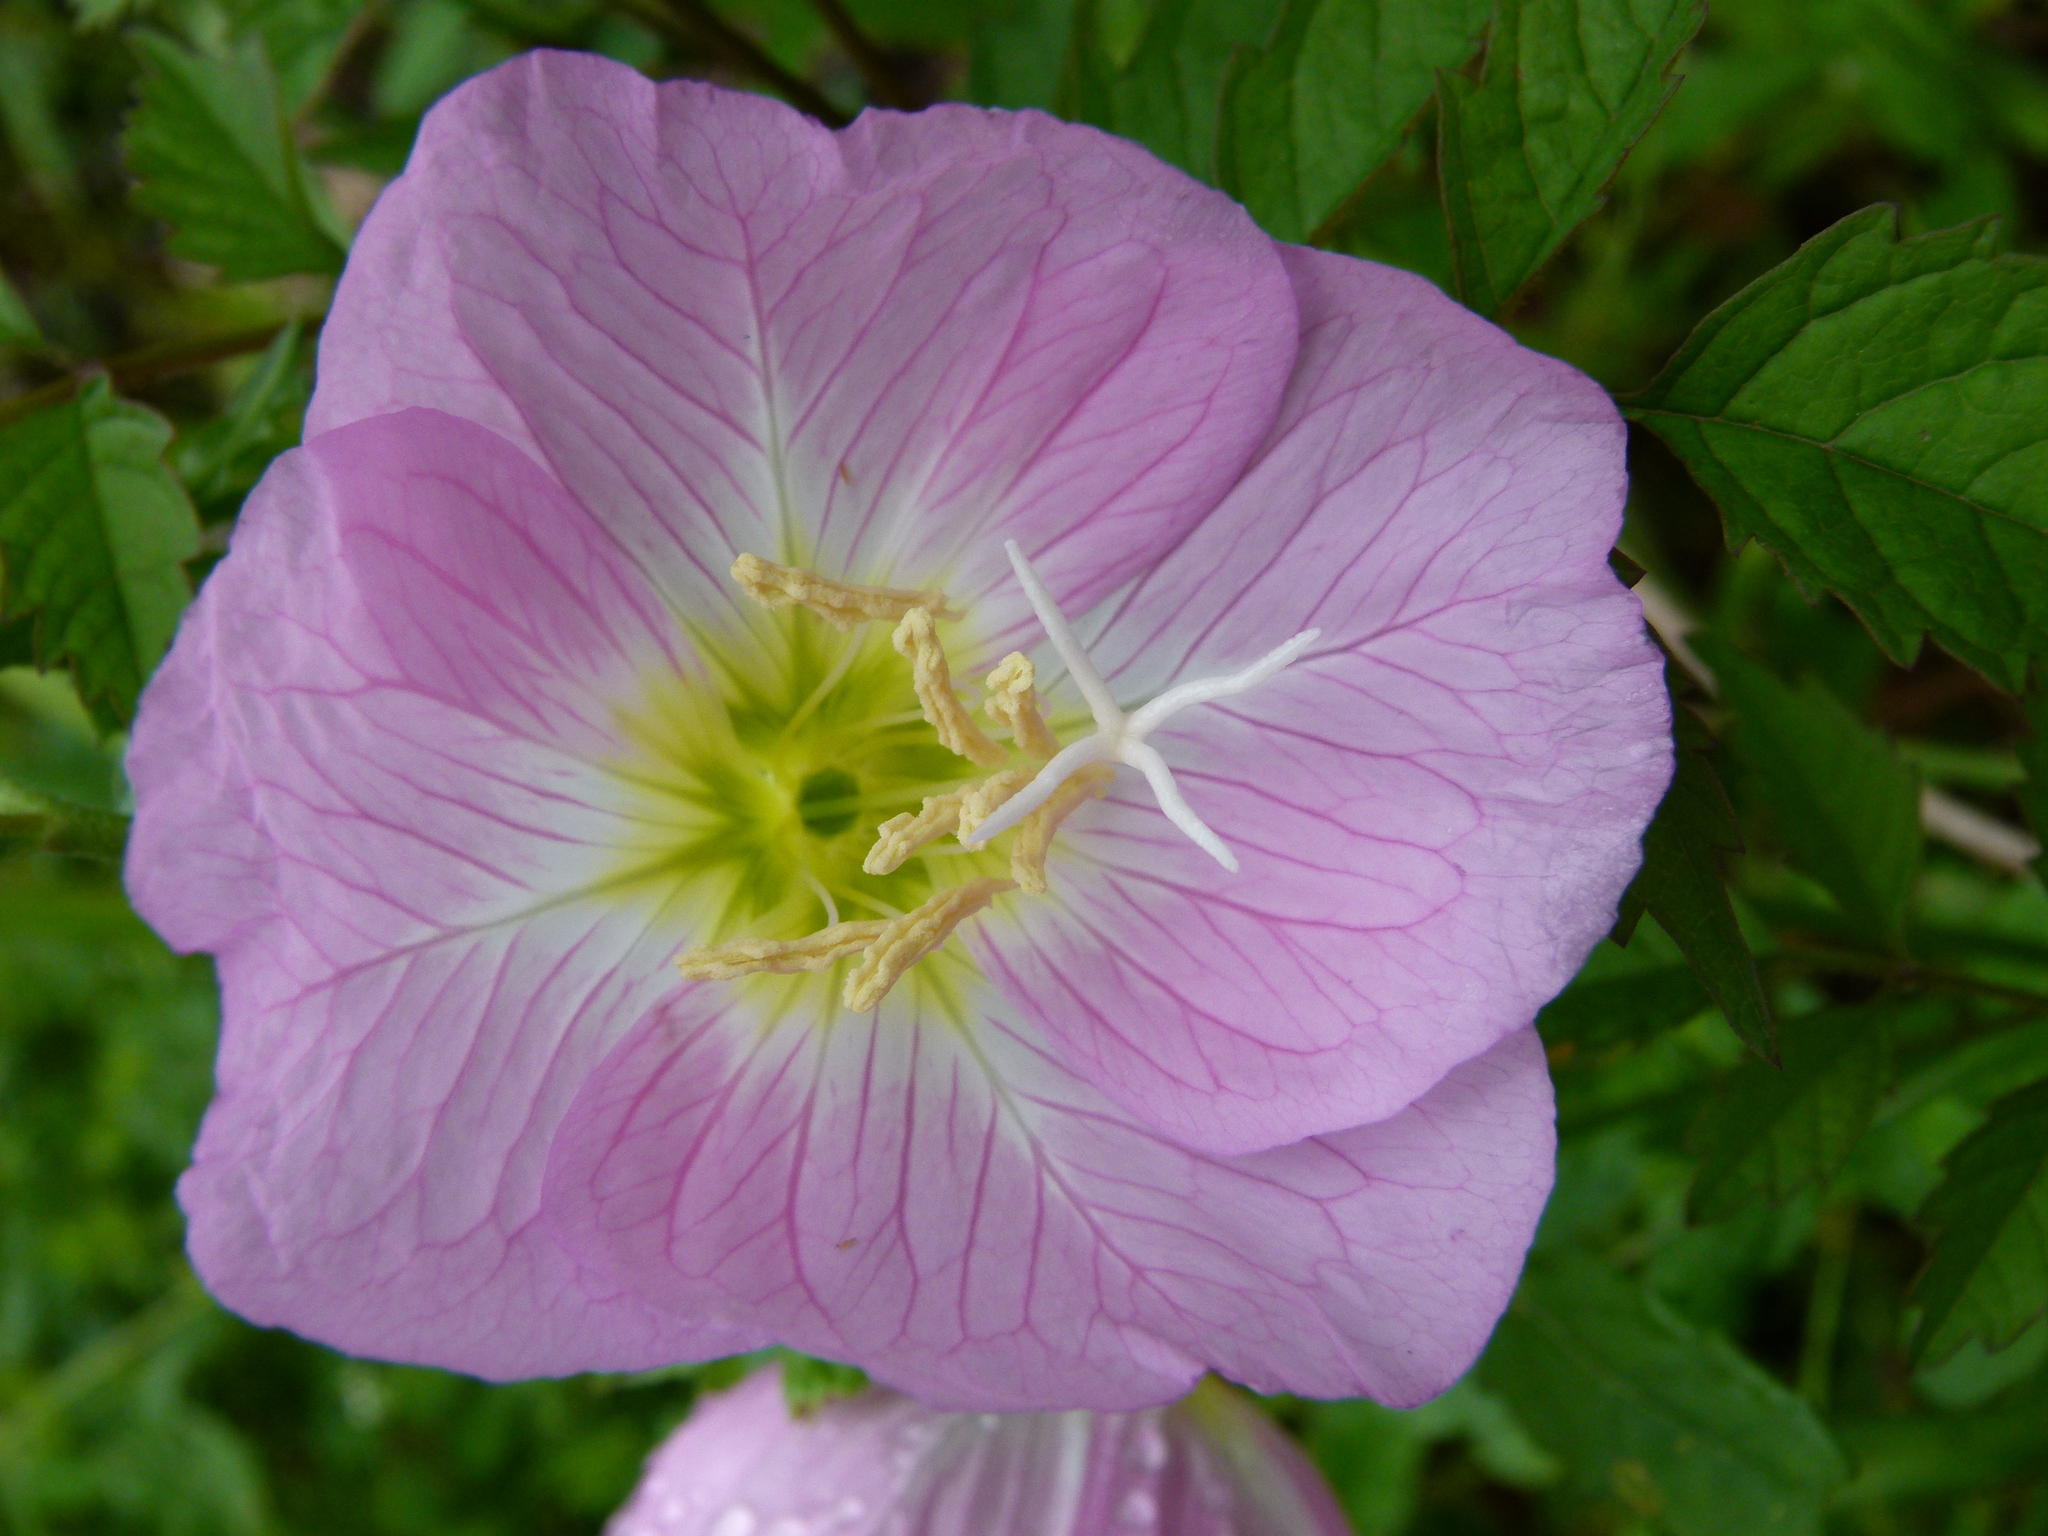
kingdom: Plantae
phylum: Tracheophyta
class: Magnoliopsida
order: Myrtales
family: Onagraceae
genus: Oenothera
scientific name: Oenothera speciosa
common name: White evening-primrose
